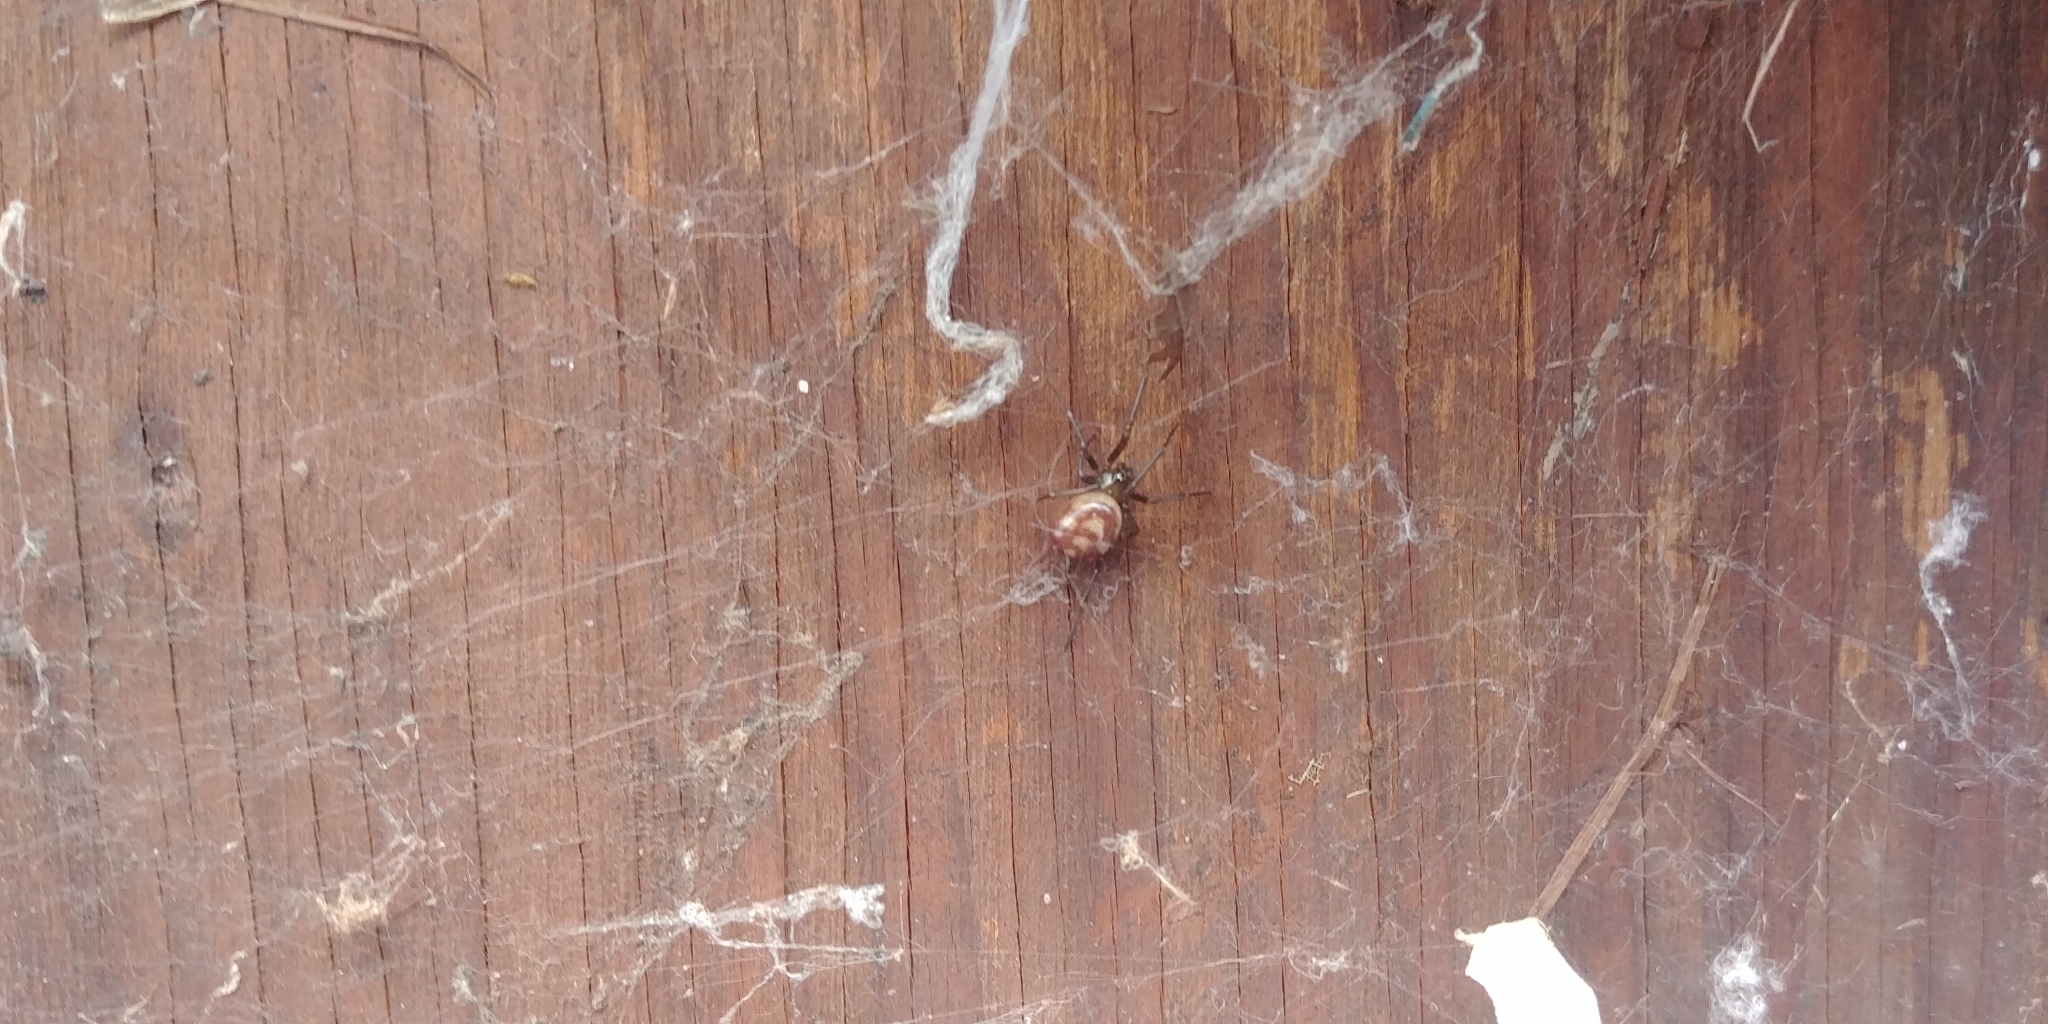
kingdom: Animalia
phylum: Arthropoda
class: Arachnida
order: Araneae
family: Theridiidae
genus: Steatoda
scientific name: Steatoda grossa
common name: False black widow
